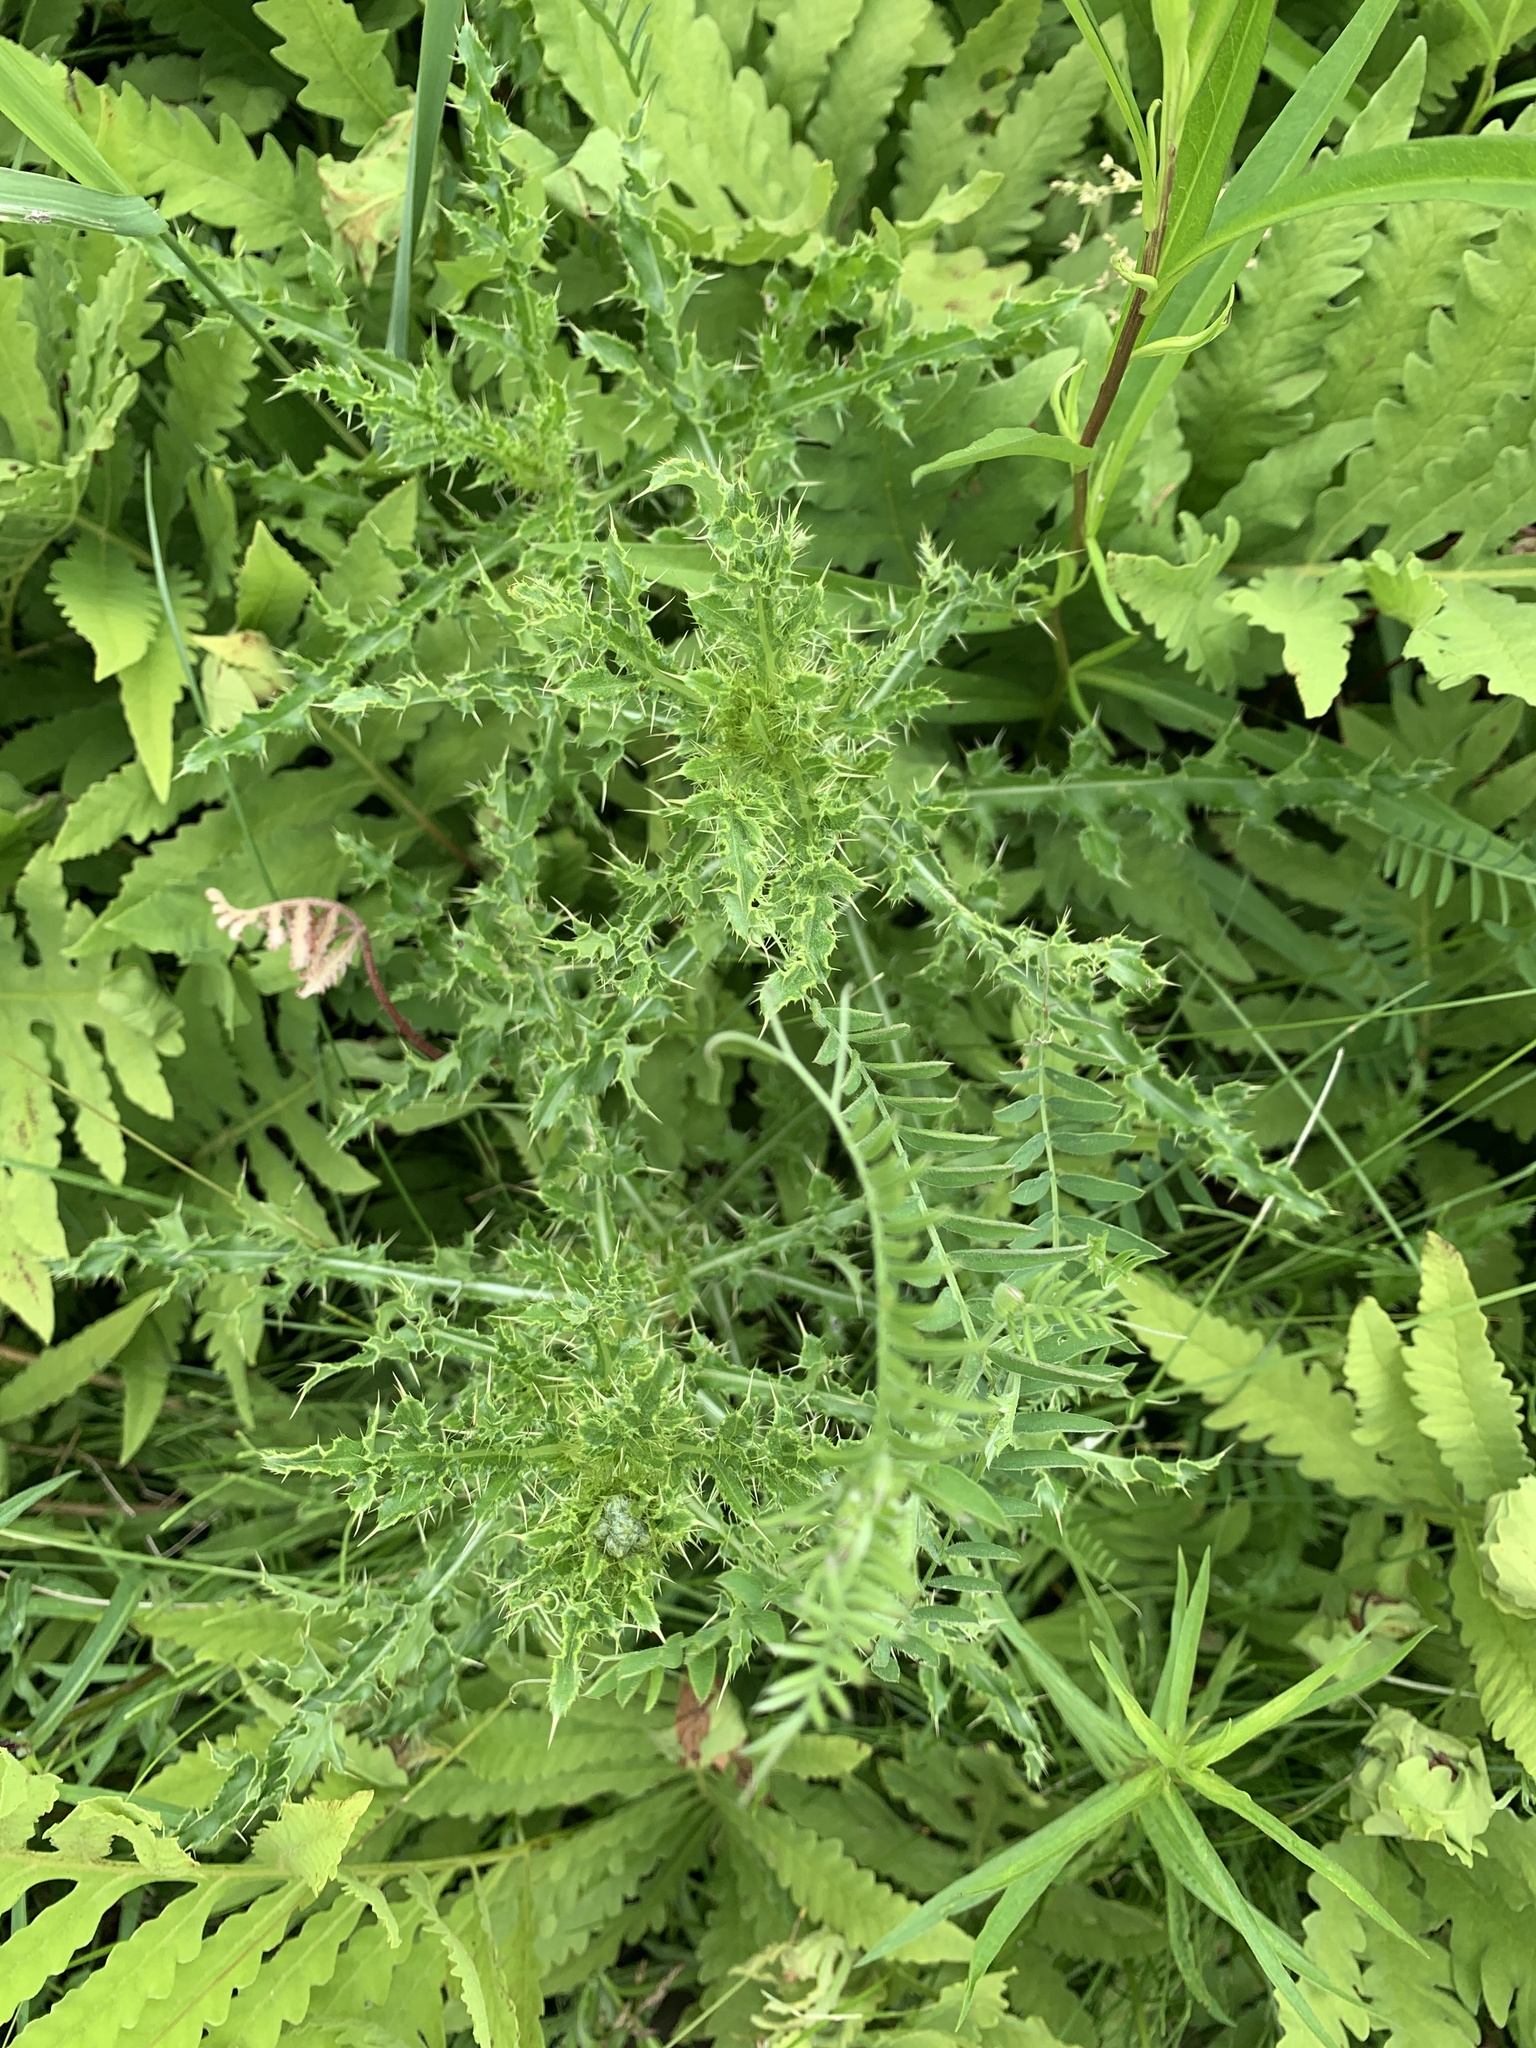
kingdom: Plantae
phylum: Tracheophyta
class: Magnoliopsida
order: Asterales
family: Asteraceae
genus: Cirsium
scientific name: Cirsium arvense
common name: Creeping thistle
